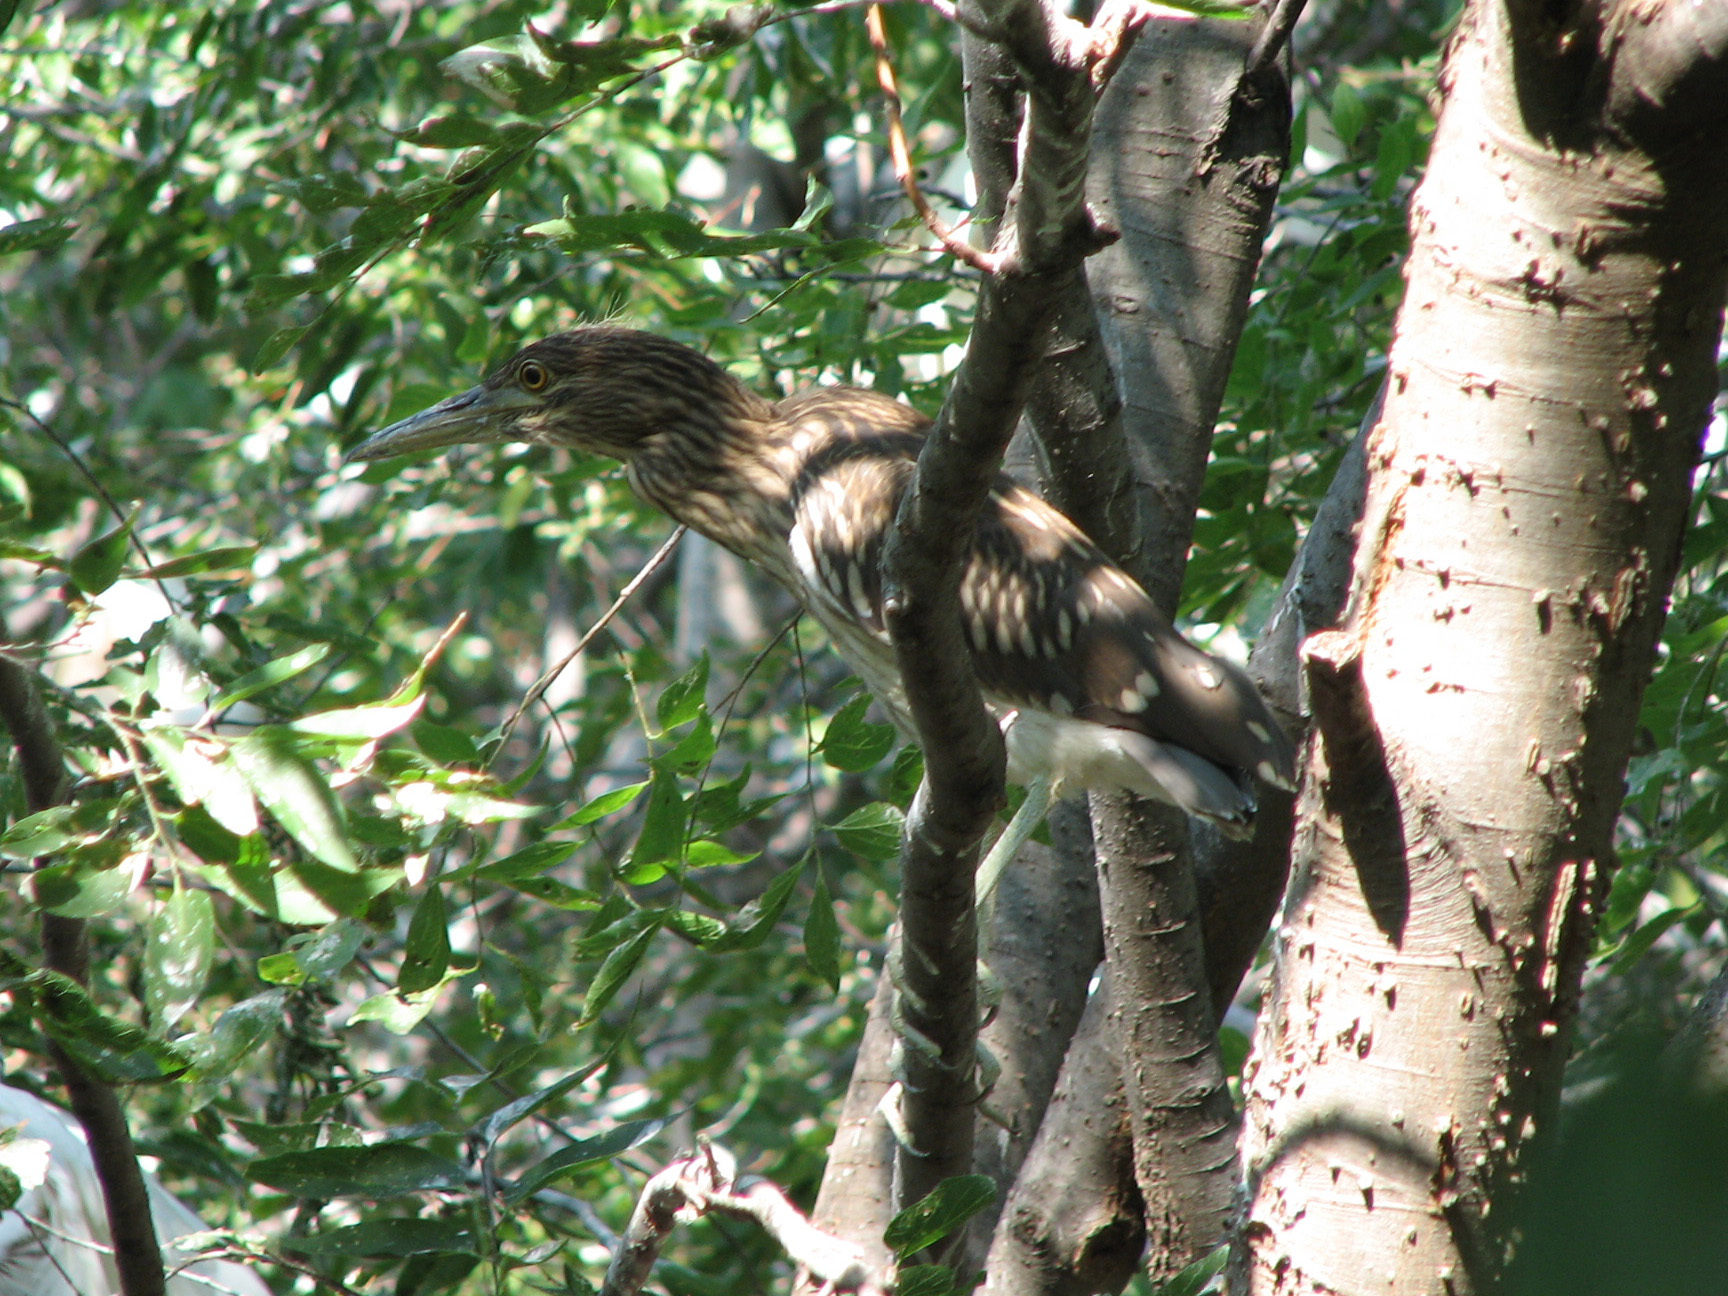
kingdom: Animalia
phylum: Chordata
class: Aves
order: Pelecaniformes
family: Ardeidae
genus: Nycticorax
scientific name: Nycticorax nycticorax
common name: Black-crowned night heron
